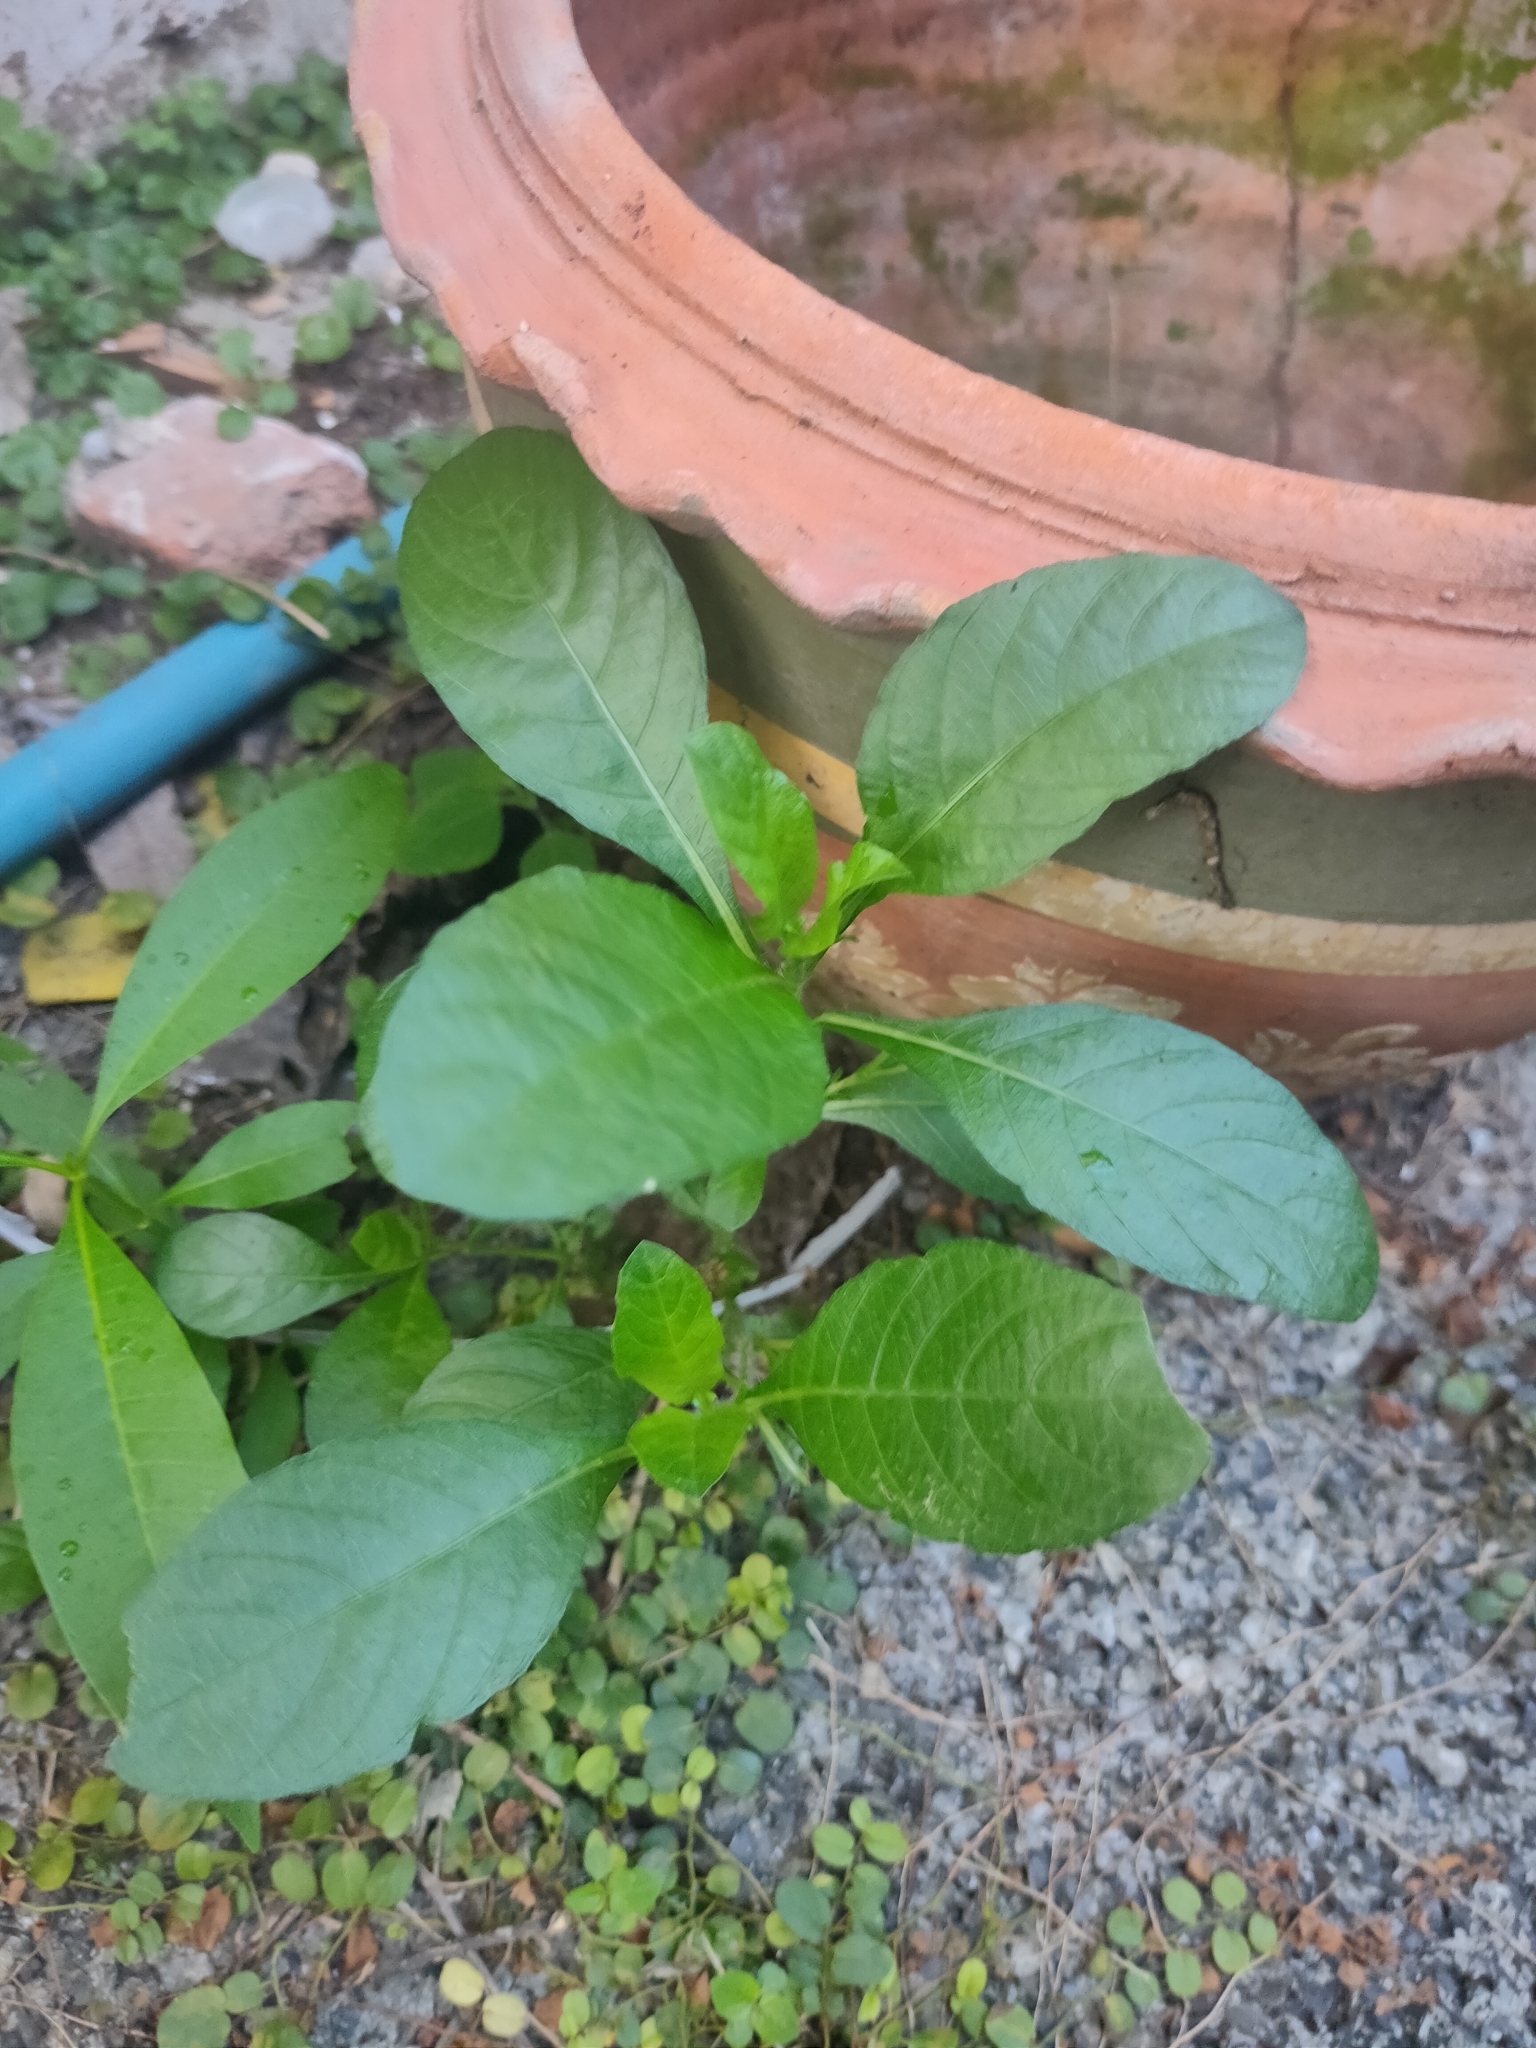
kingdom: Plantae
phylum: Tracheophyta
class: Magnoliopsida
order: Lamiales
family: Acanthaceae
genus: Ruellia
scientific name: Ruellia tuberosa
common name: Devil's bit
